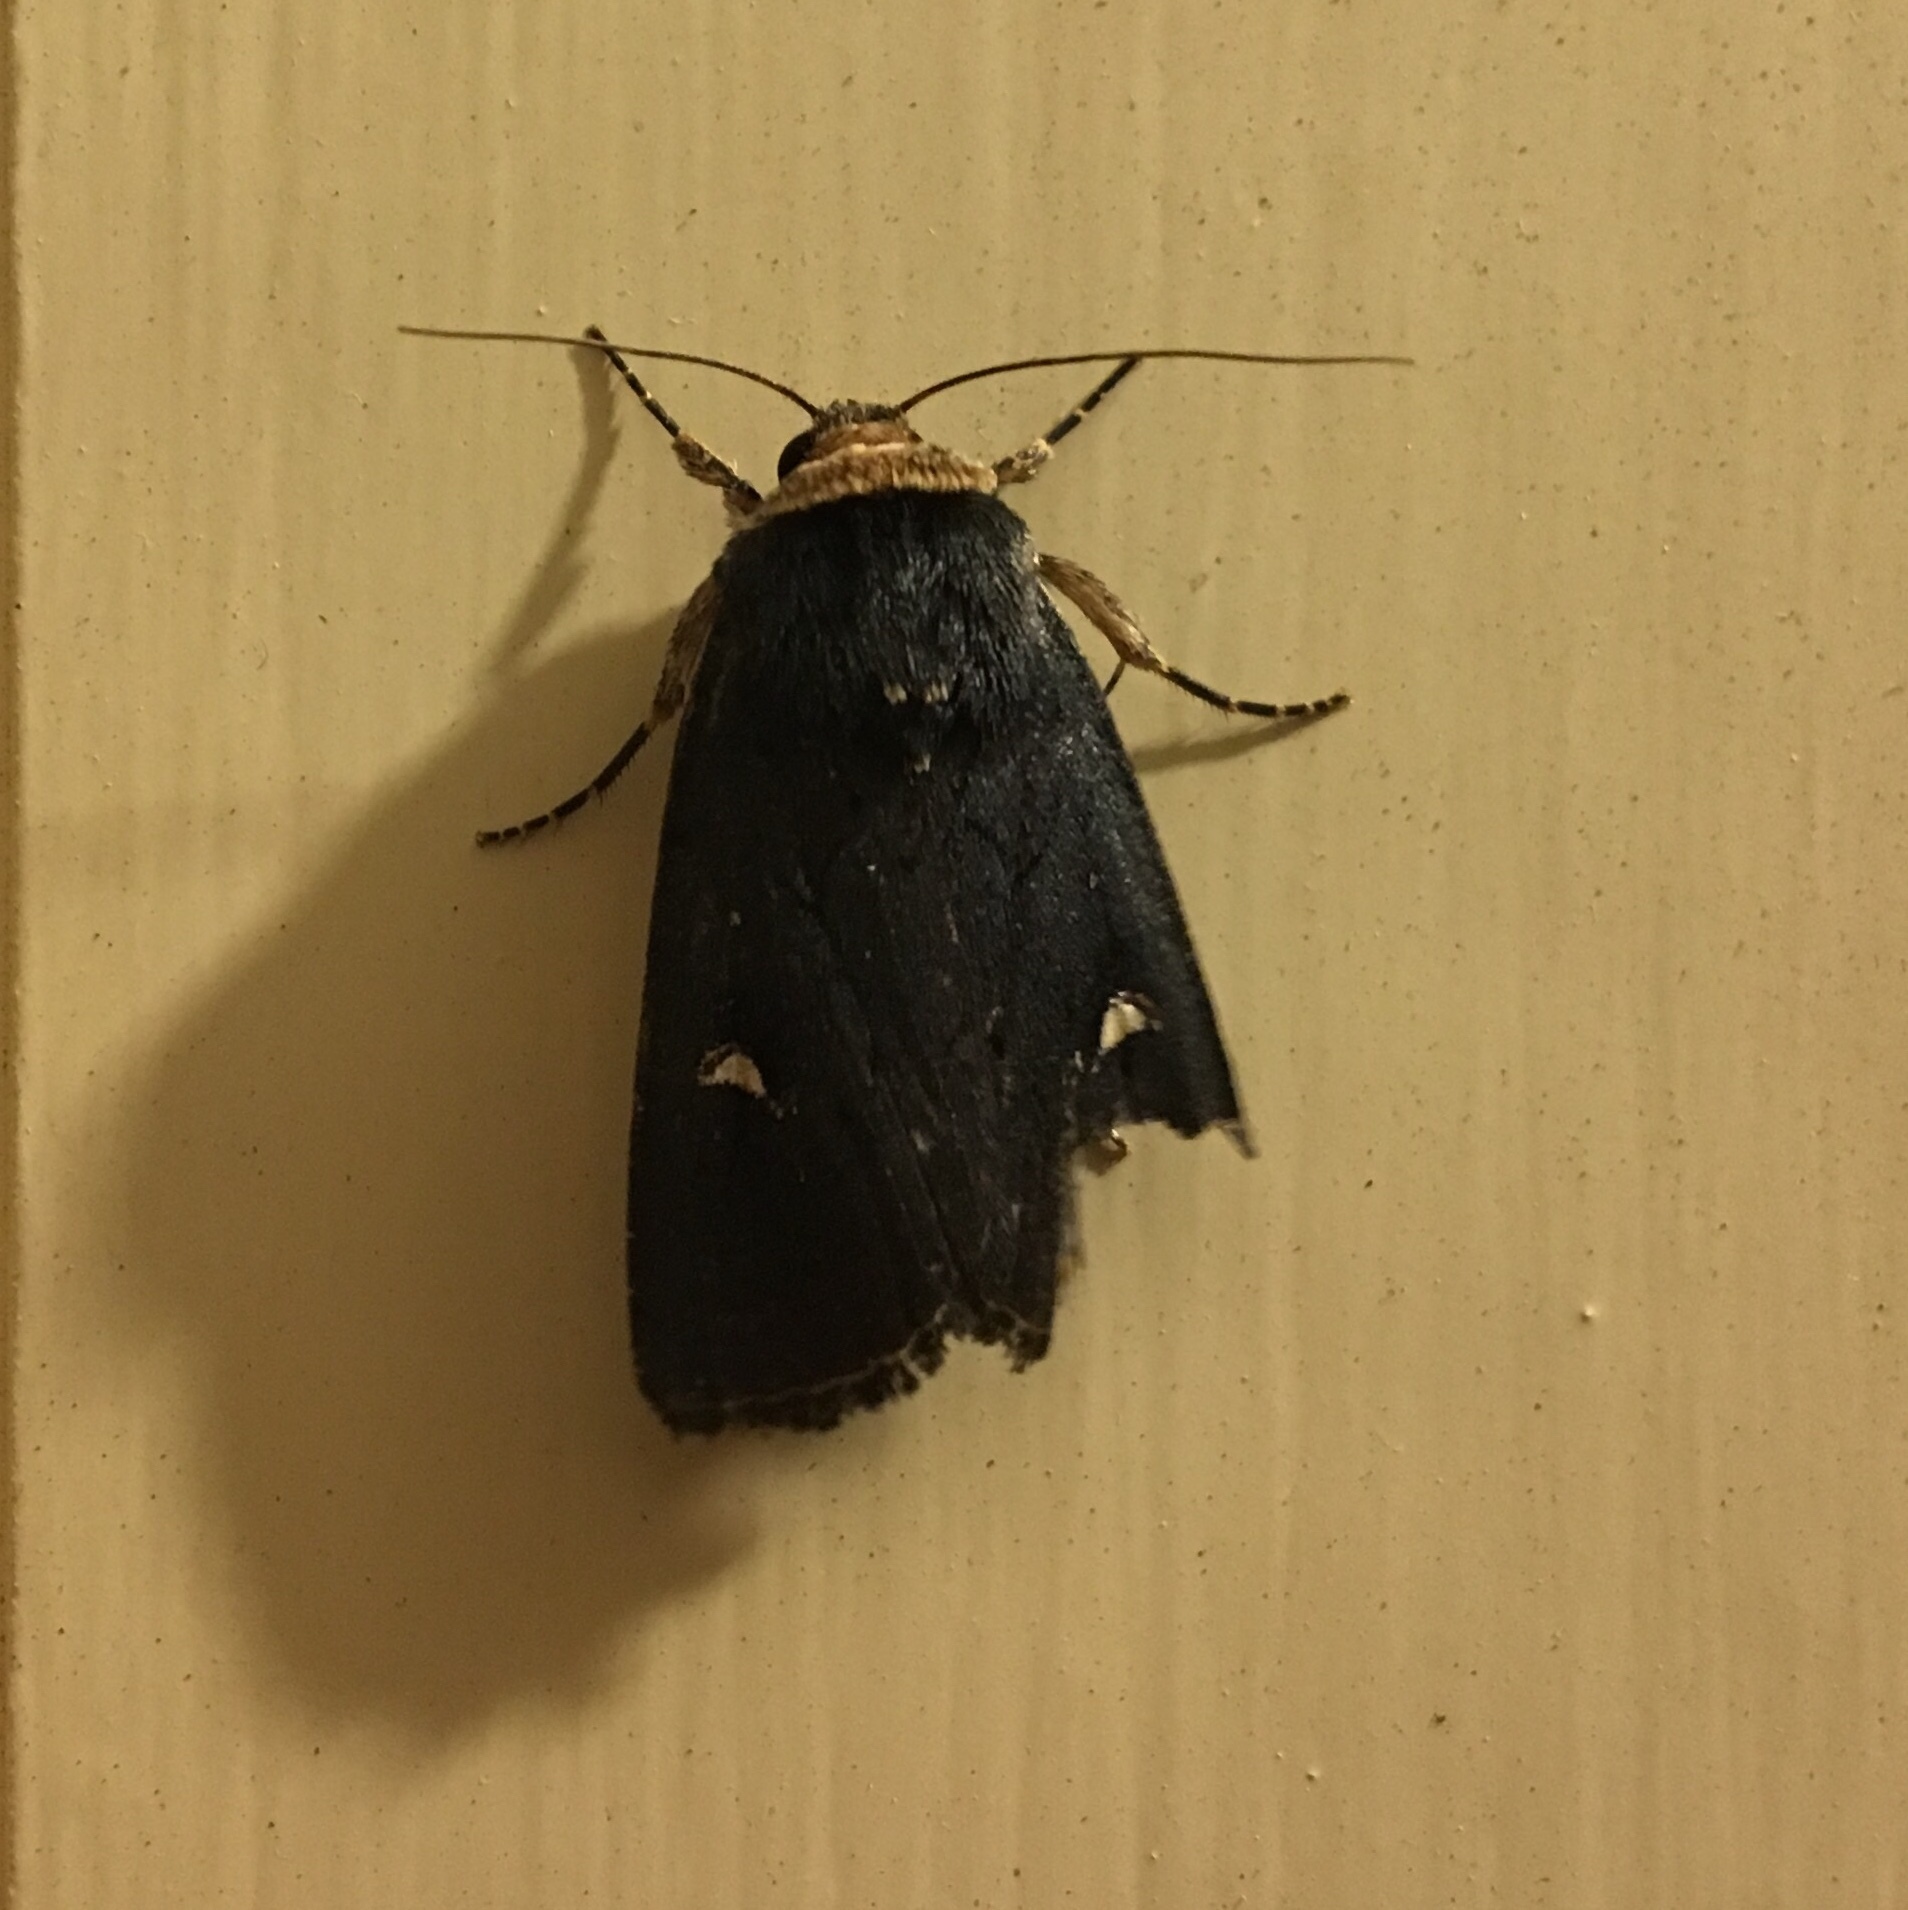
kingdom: Animalia
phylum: Arthropoda
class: Insecta
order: Lepidoptera
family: Noctuidae
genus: Proteuxoa
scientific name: Proteuxoa testaceicollis
